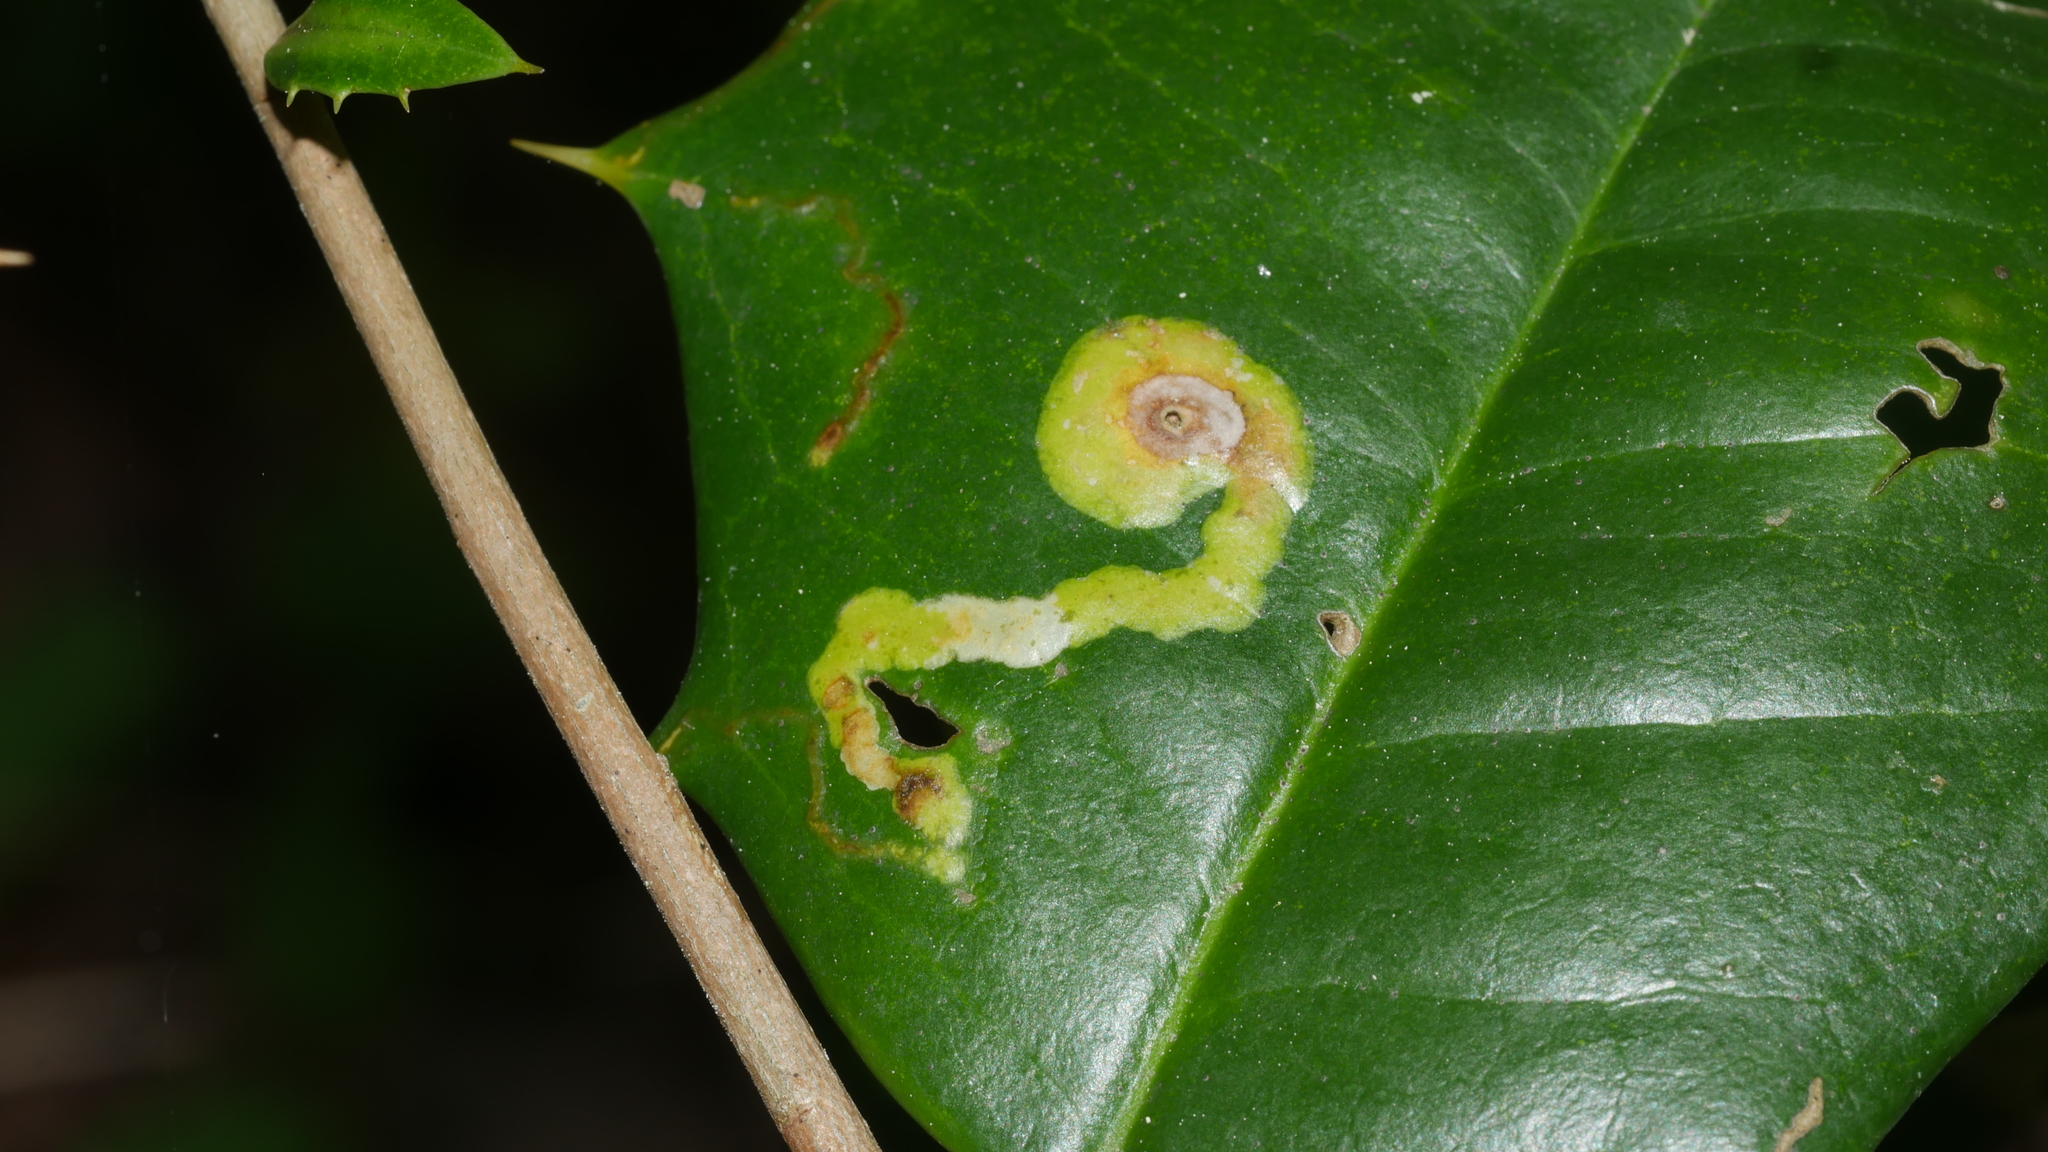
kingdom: Animalia
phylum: Arthropoda
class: Insecta
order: Diptera
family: Agromyzidae
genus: Phytomyza
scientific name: Phytomyza ilicicola
